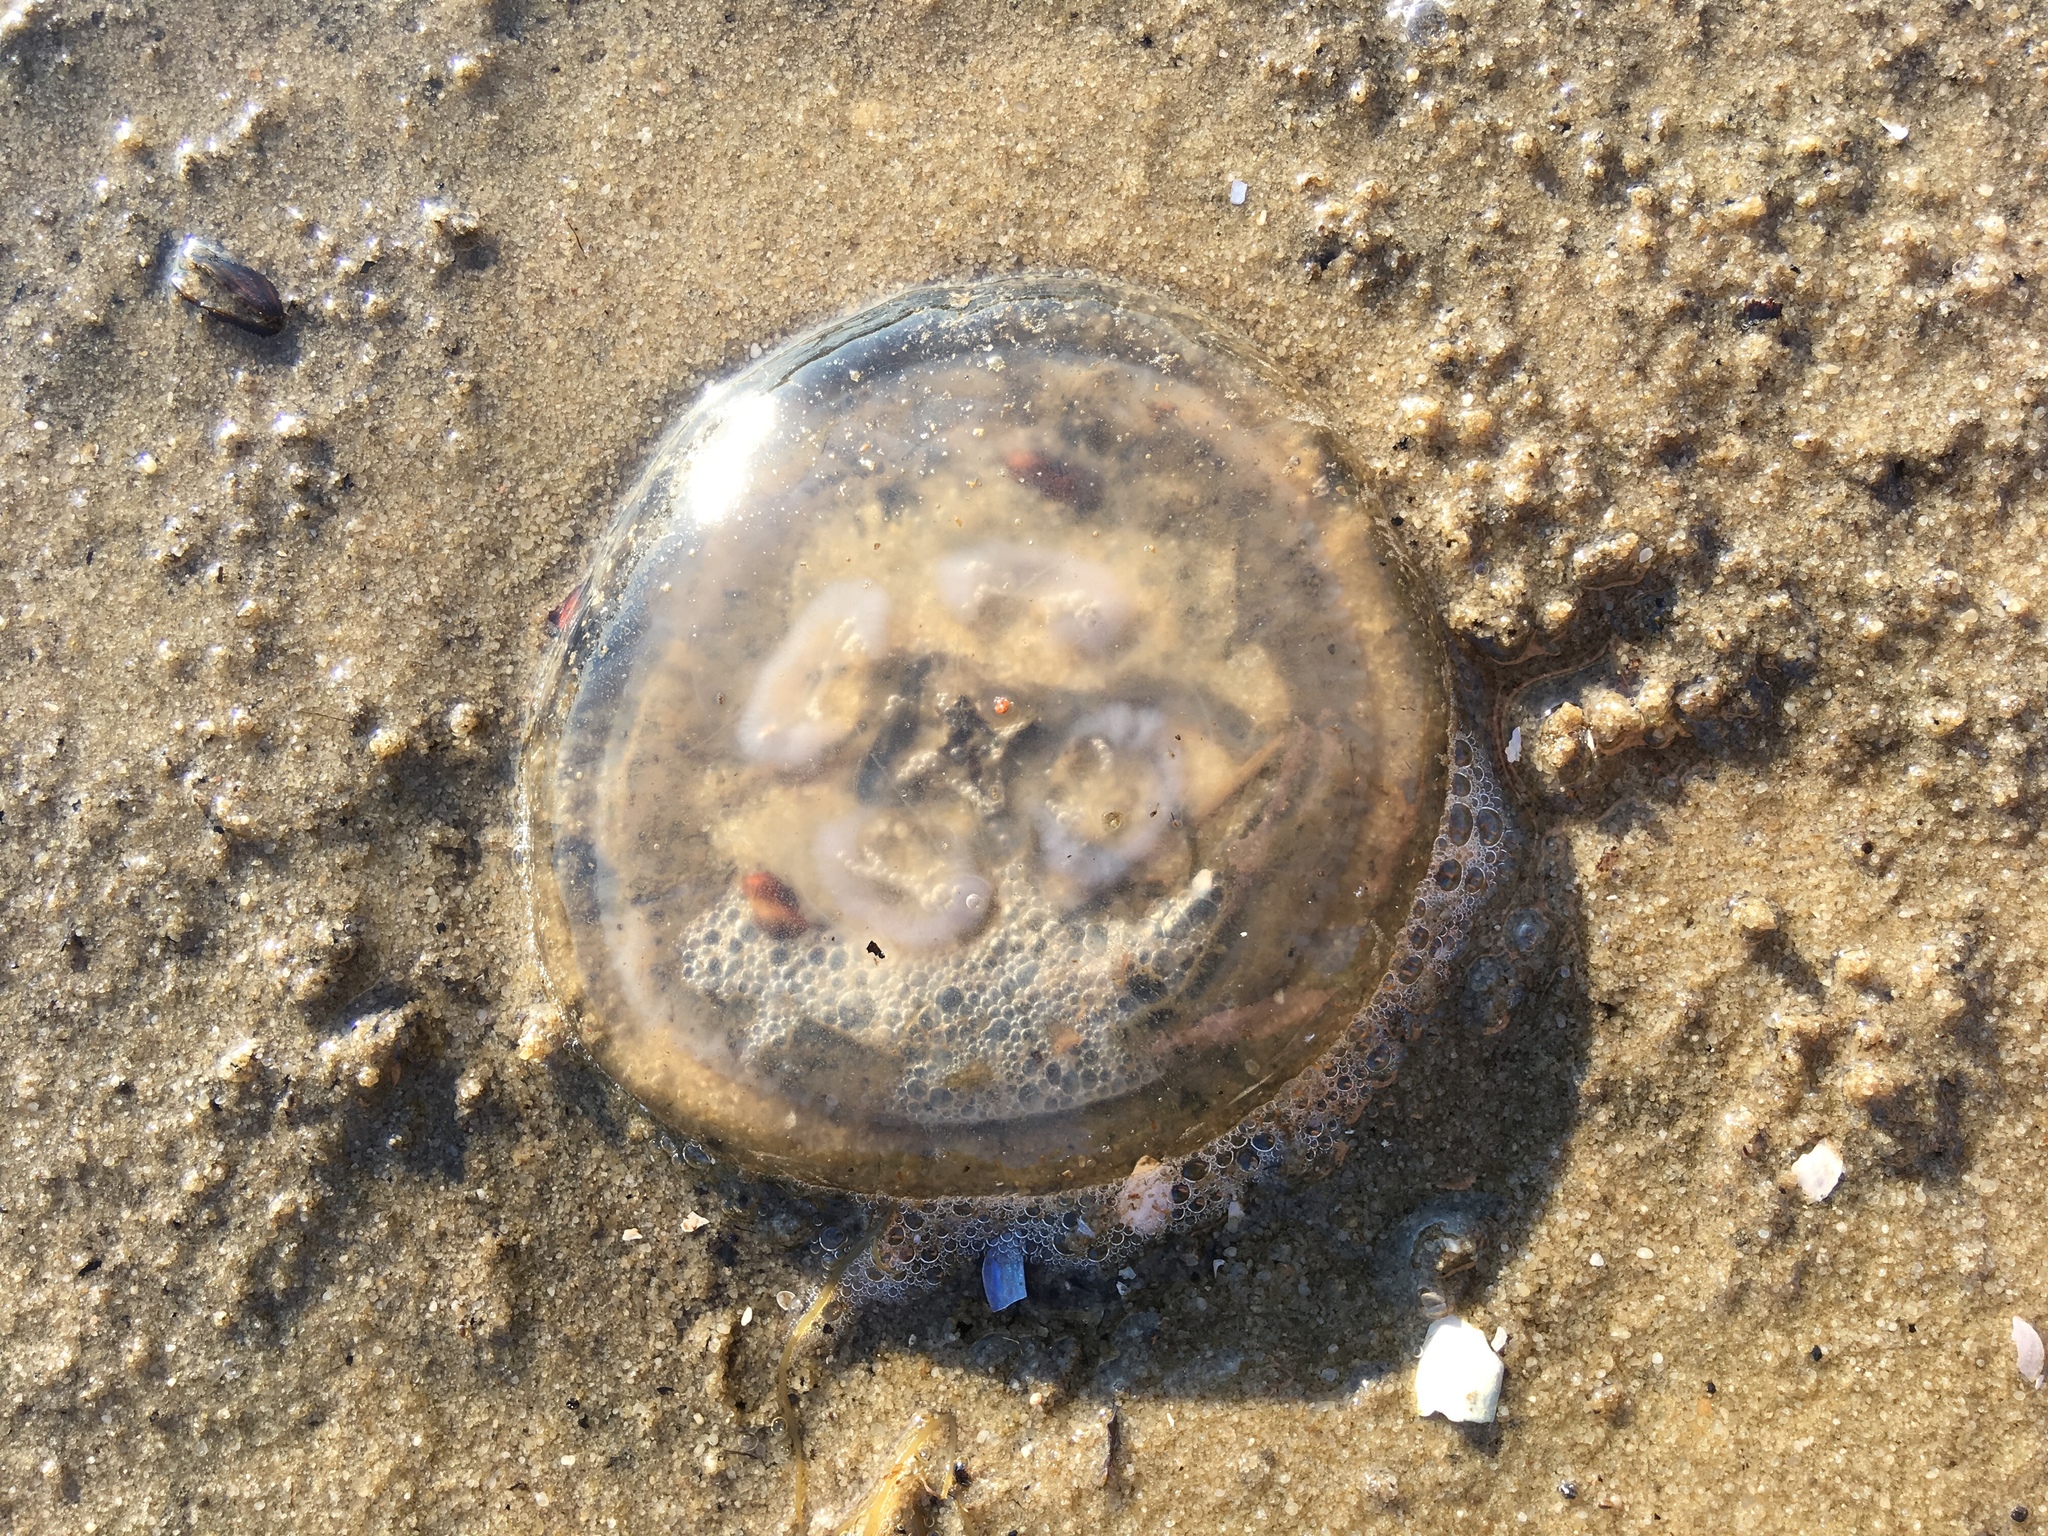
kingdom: Animalia
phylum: Cnidaria
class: Scyphozoa
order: Semaeostomeae
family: Ulmaridae
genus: Aurelia
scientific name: Aurelia
